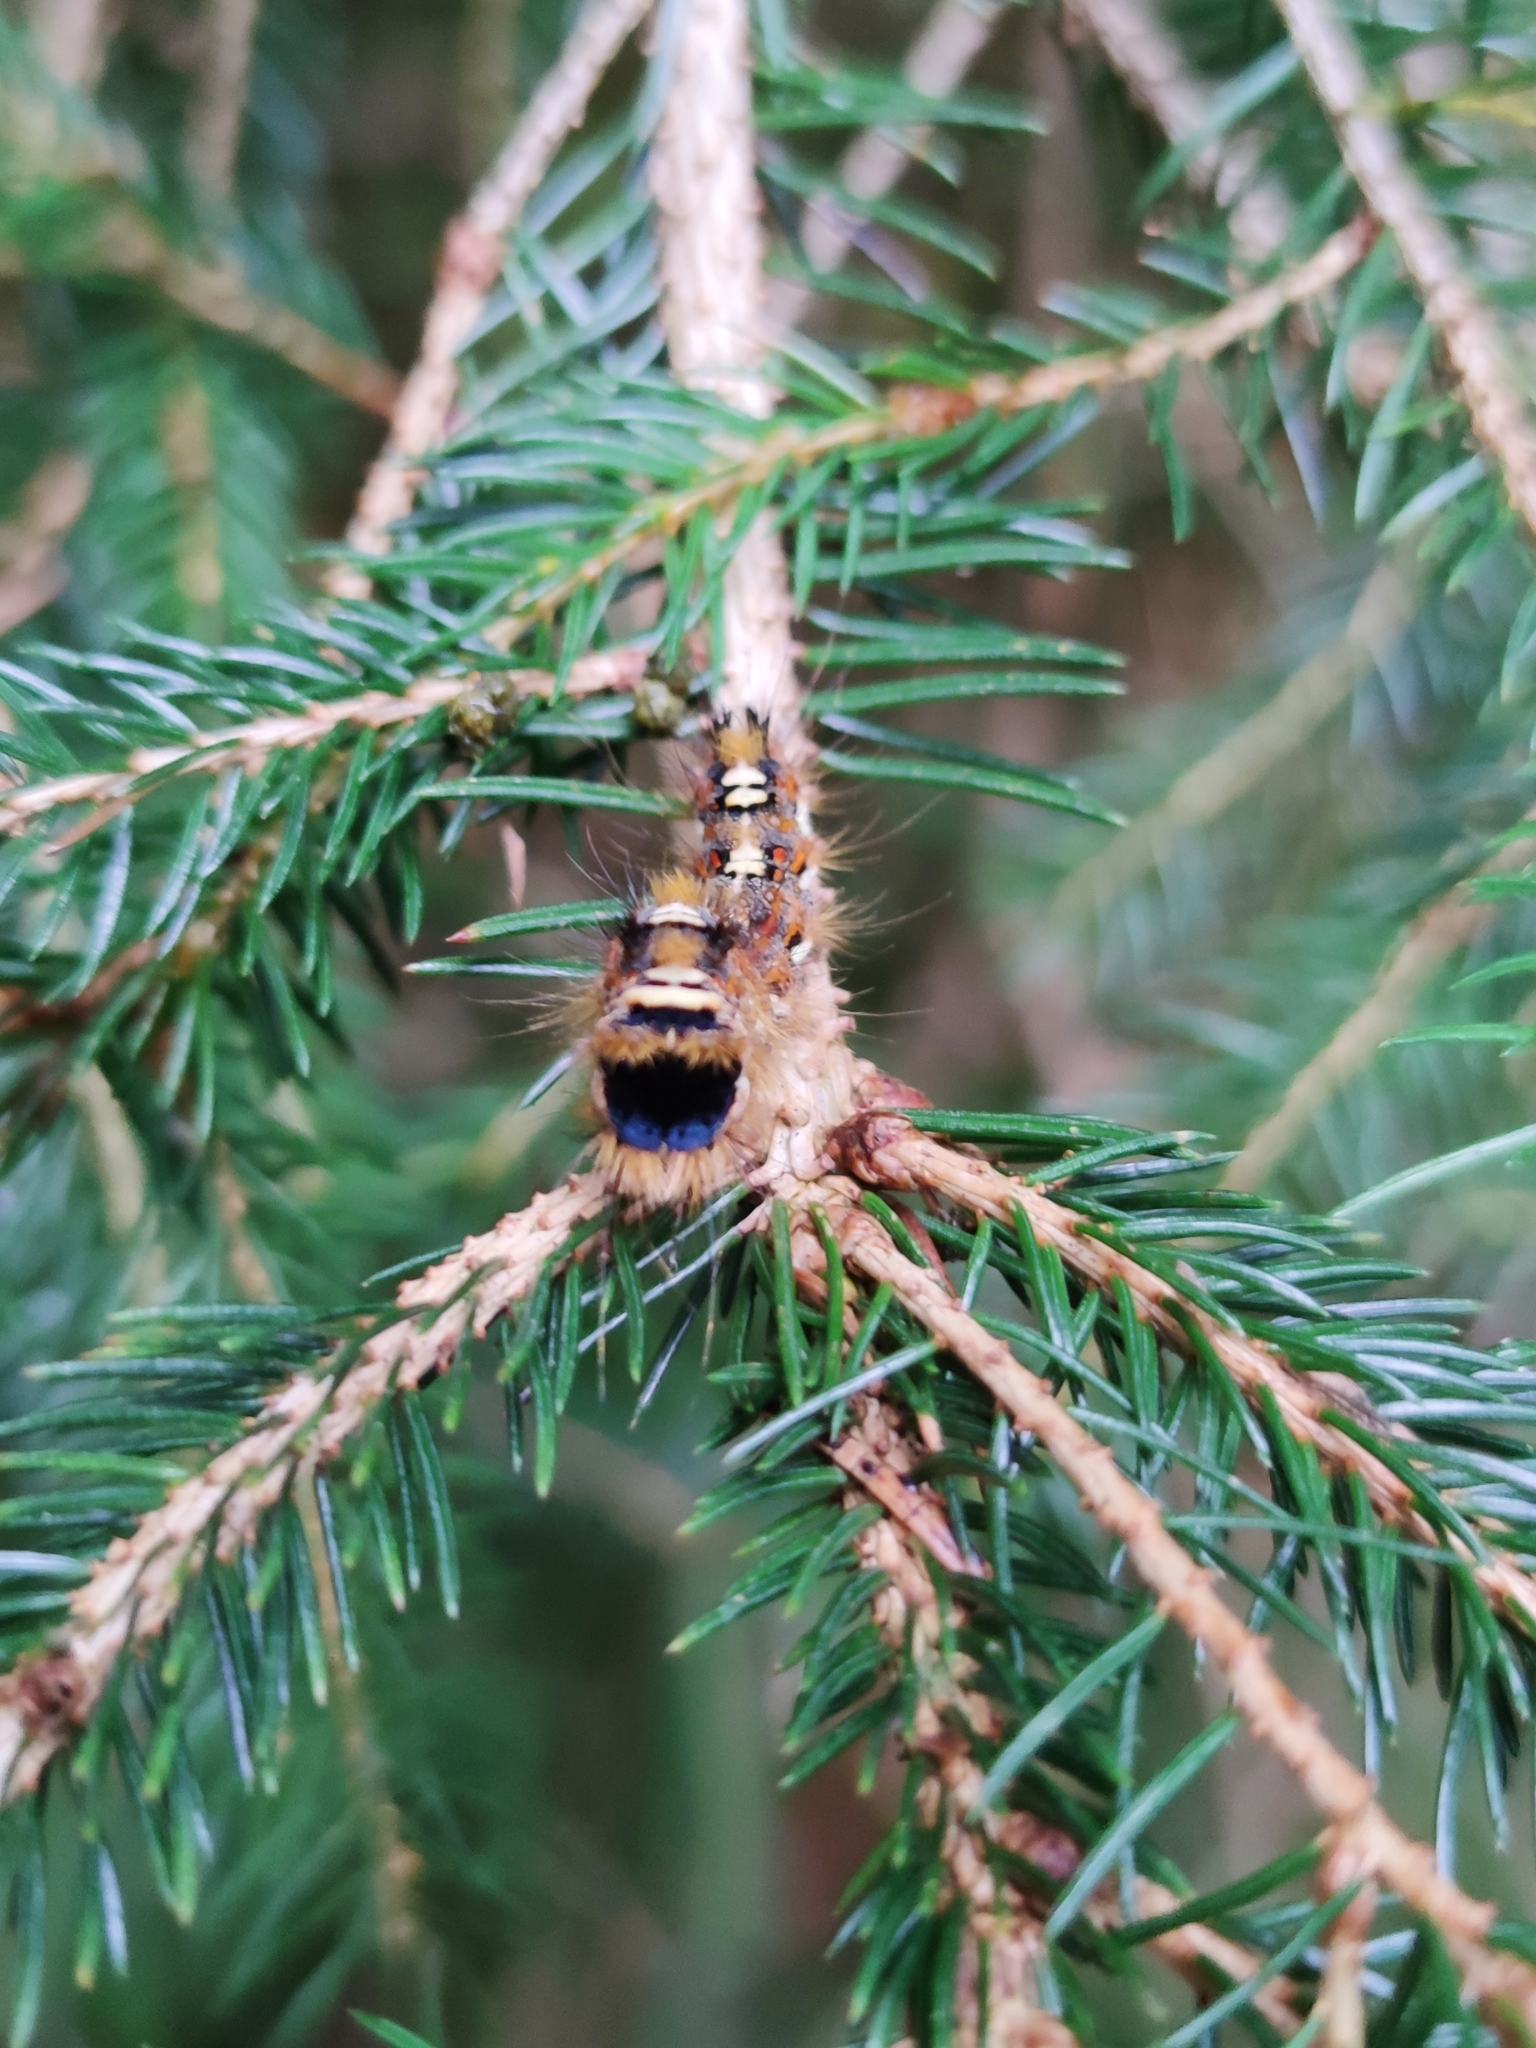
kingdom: Animalia
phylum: Arthropoda
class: Insecta
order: Lepidoptera
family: Noctuidae
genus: Panthea
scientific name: Panthea coenobita
